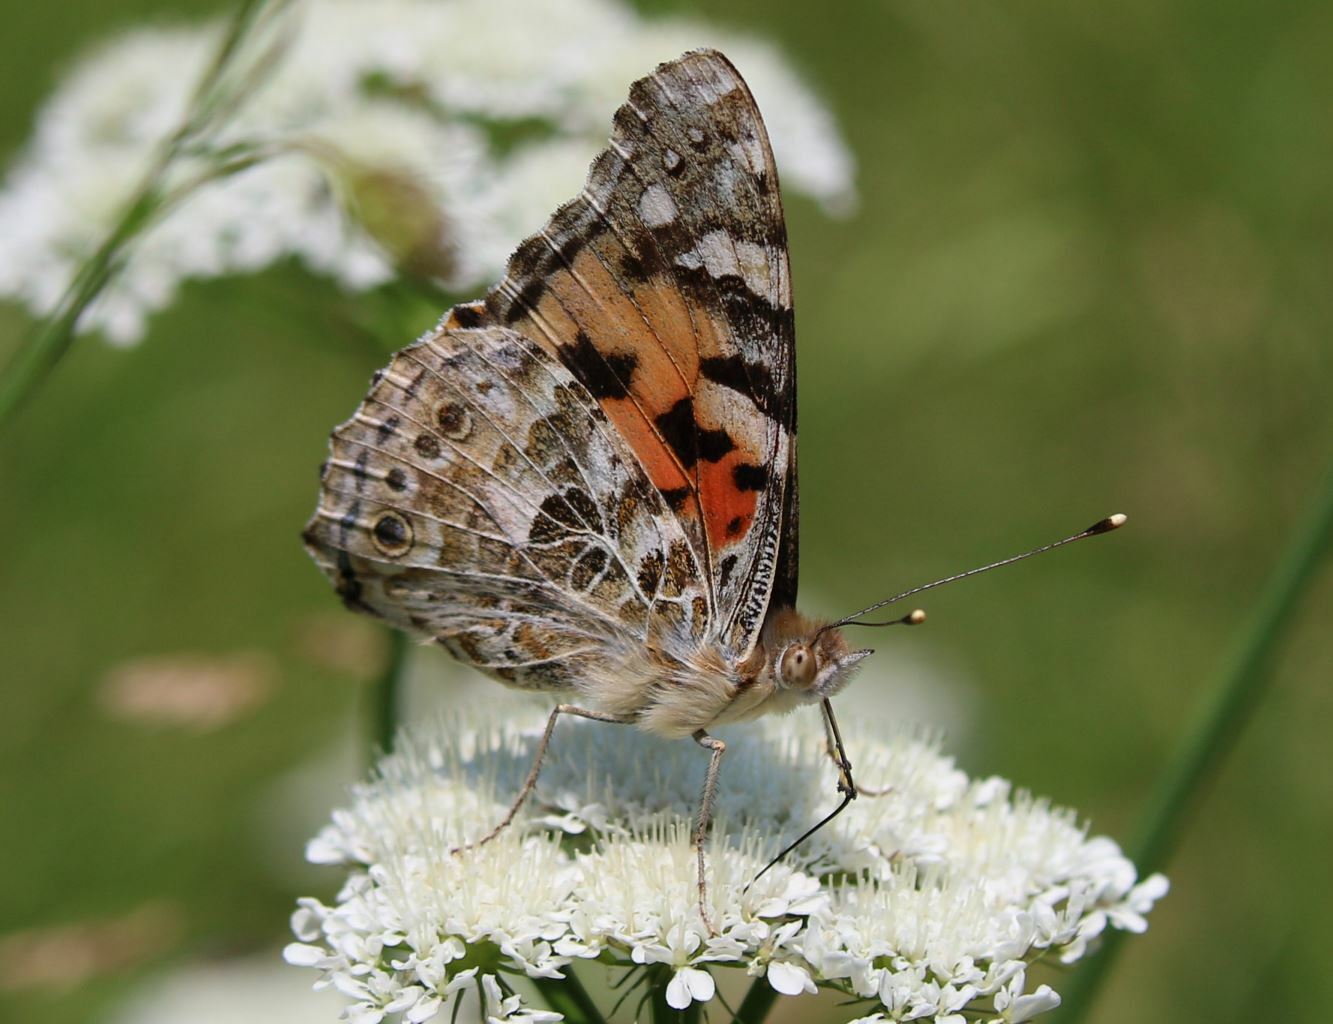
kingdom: Animalia
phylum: Arthropoda
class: Insecta
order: Lepidoptera
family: Nymphalidae
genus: Vanessa
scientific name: Vanessa cardui
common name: Painted lady
